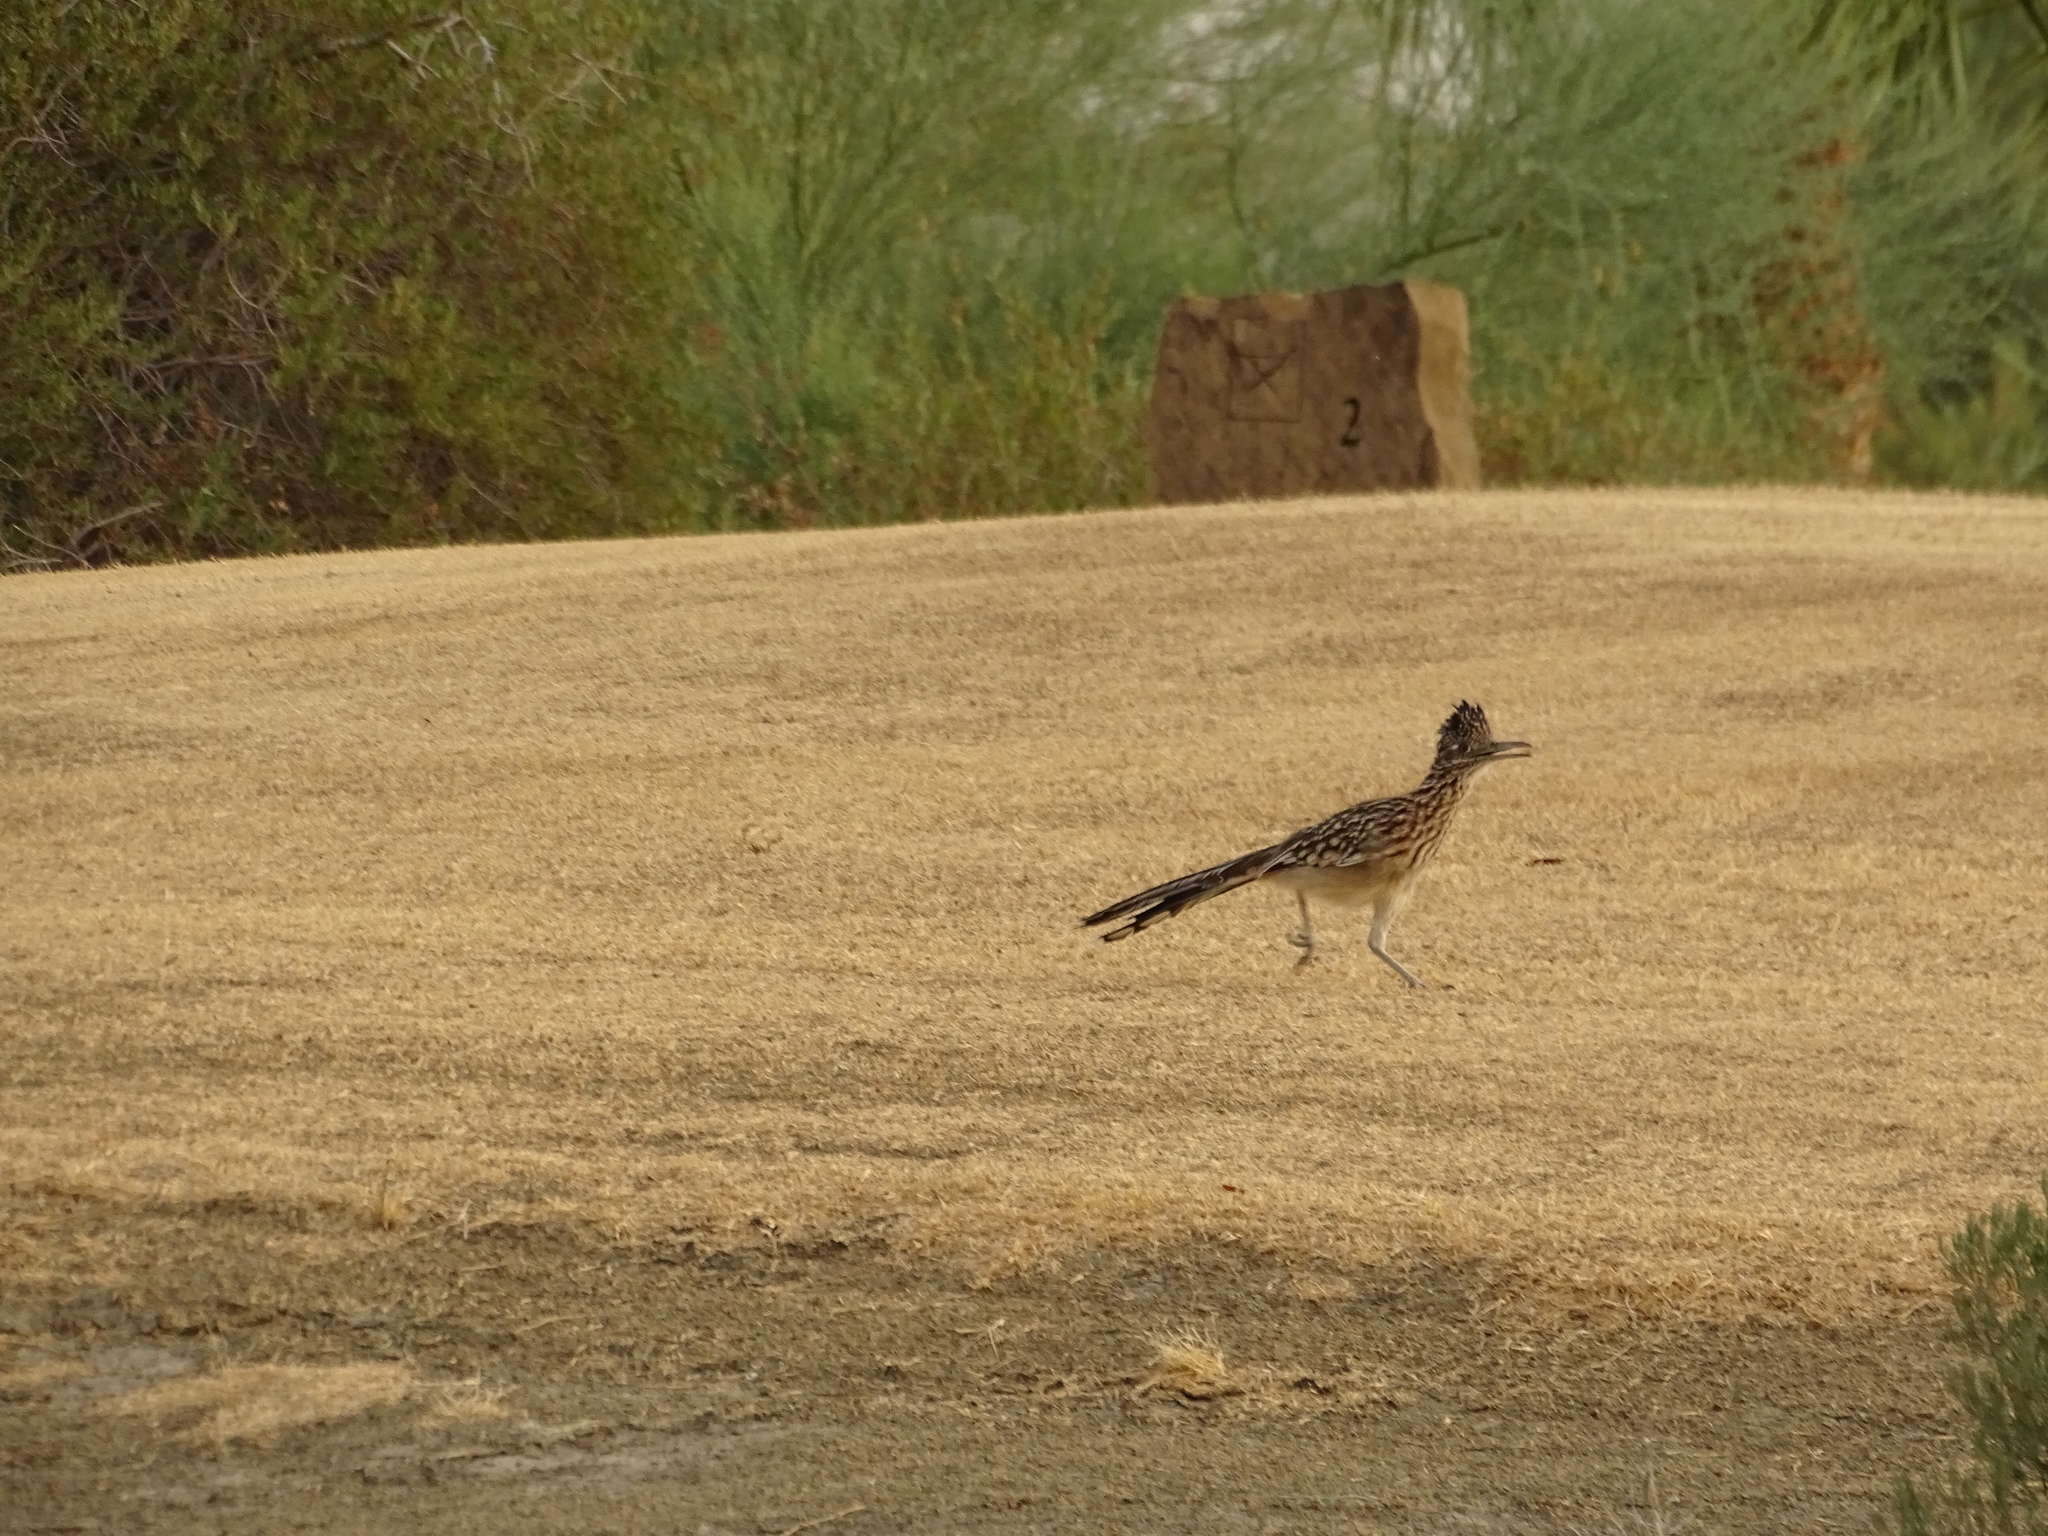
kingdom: Animalia
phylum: Chordata
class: Aves
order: Cuculiformes
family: Cuculidae
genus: Geococcyx
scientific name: Geococcyx californianus
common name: Greater roadrunner
